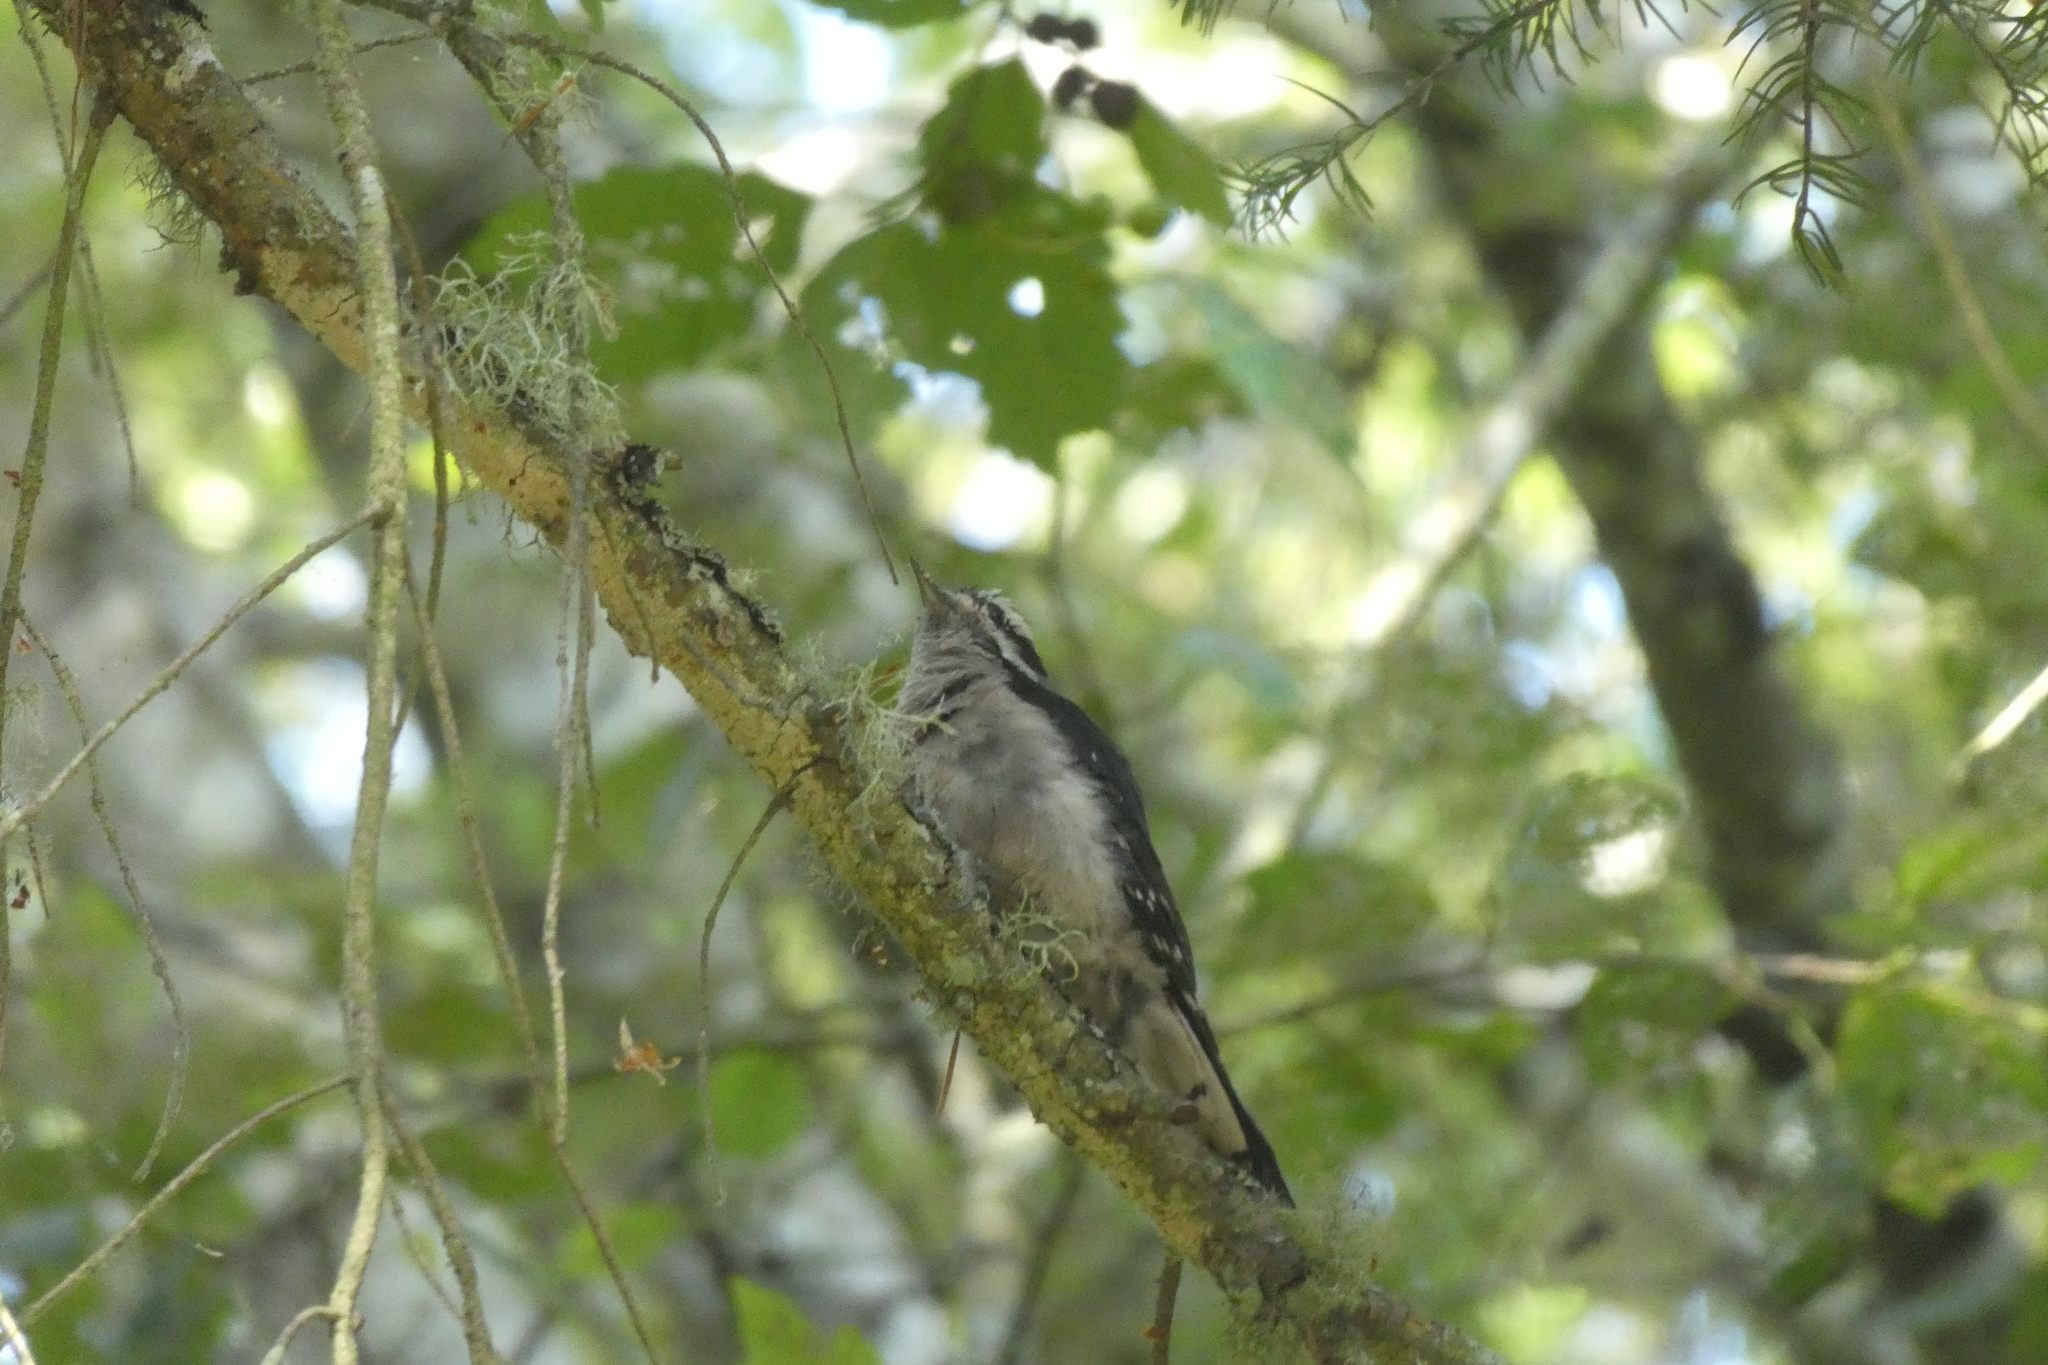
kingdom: Animalia
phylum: Chordata
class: Aves
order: Piciformes
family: Picidae
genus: Dryobates
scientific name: Dryobates pubescens
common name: Downy woodpecker
